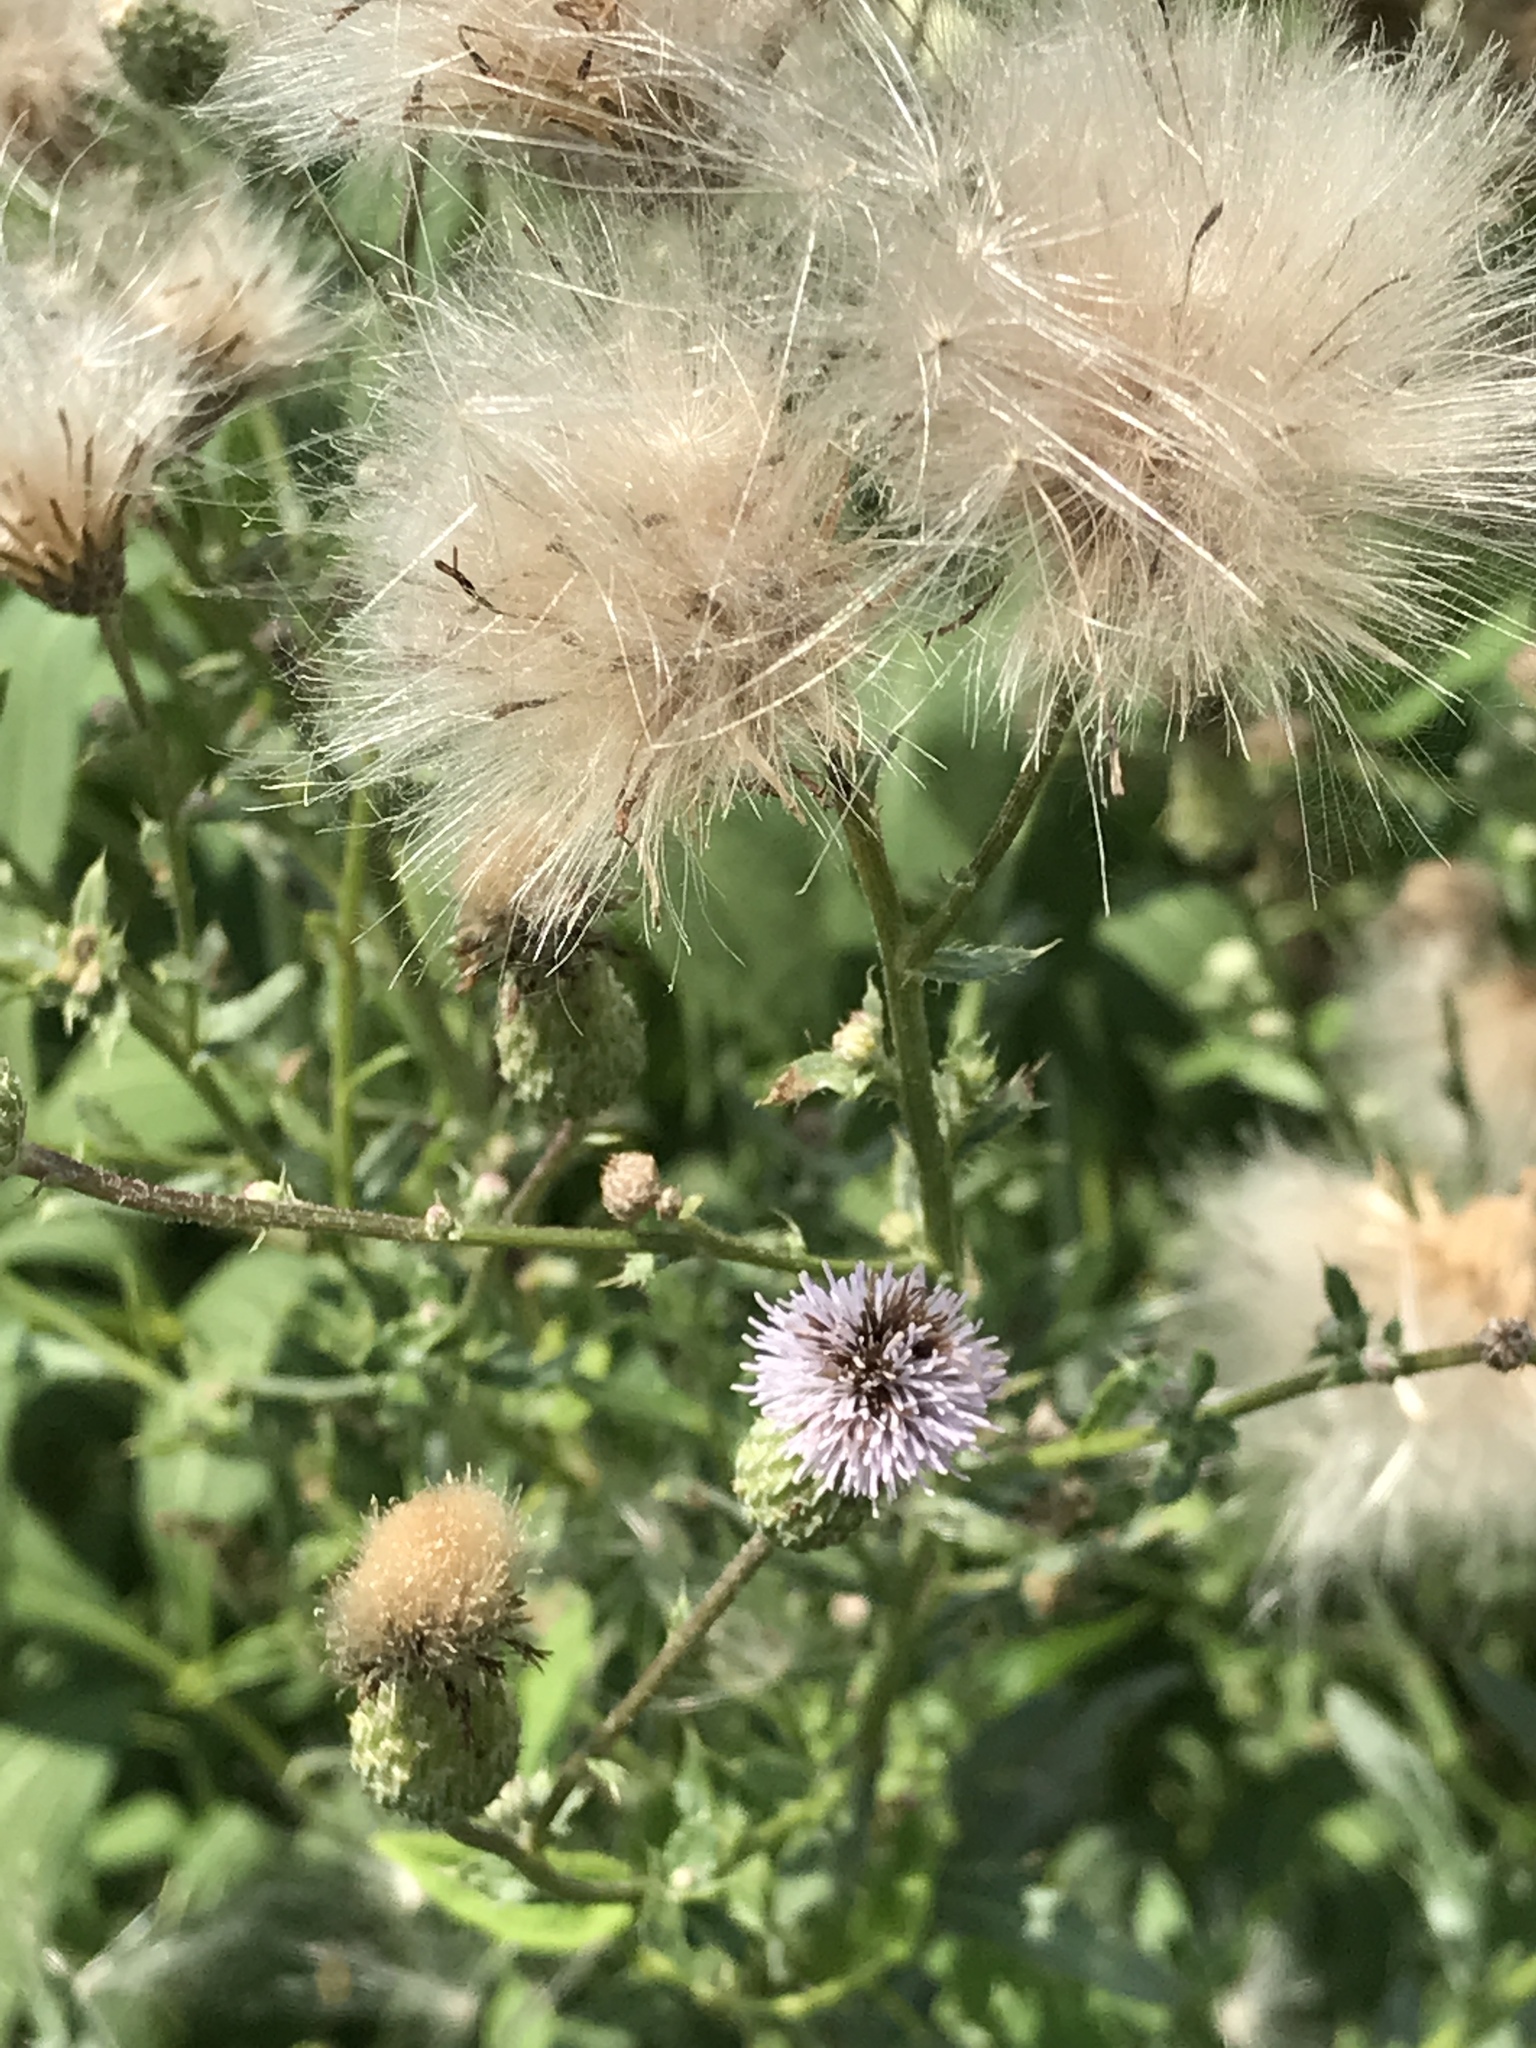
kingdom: Plantae
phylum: Tracheophyta
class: Magnoliopsida
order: Asterales
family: Asteraceae
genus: Cirsium
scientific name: Cirsium arvense
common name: Creeping thistle
